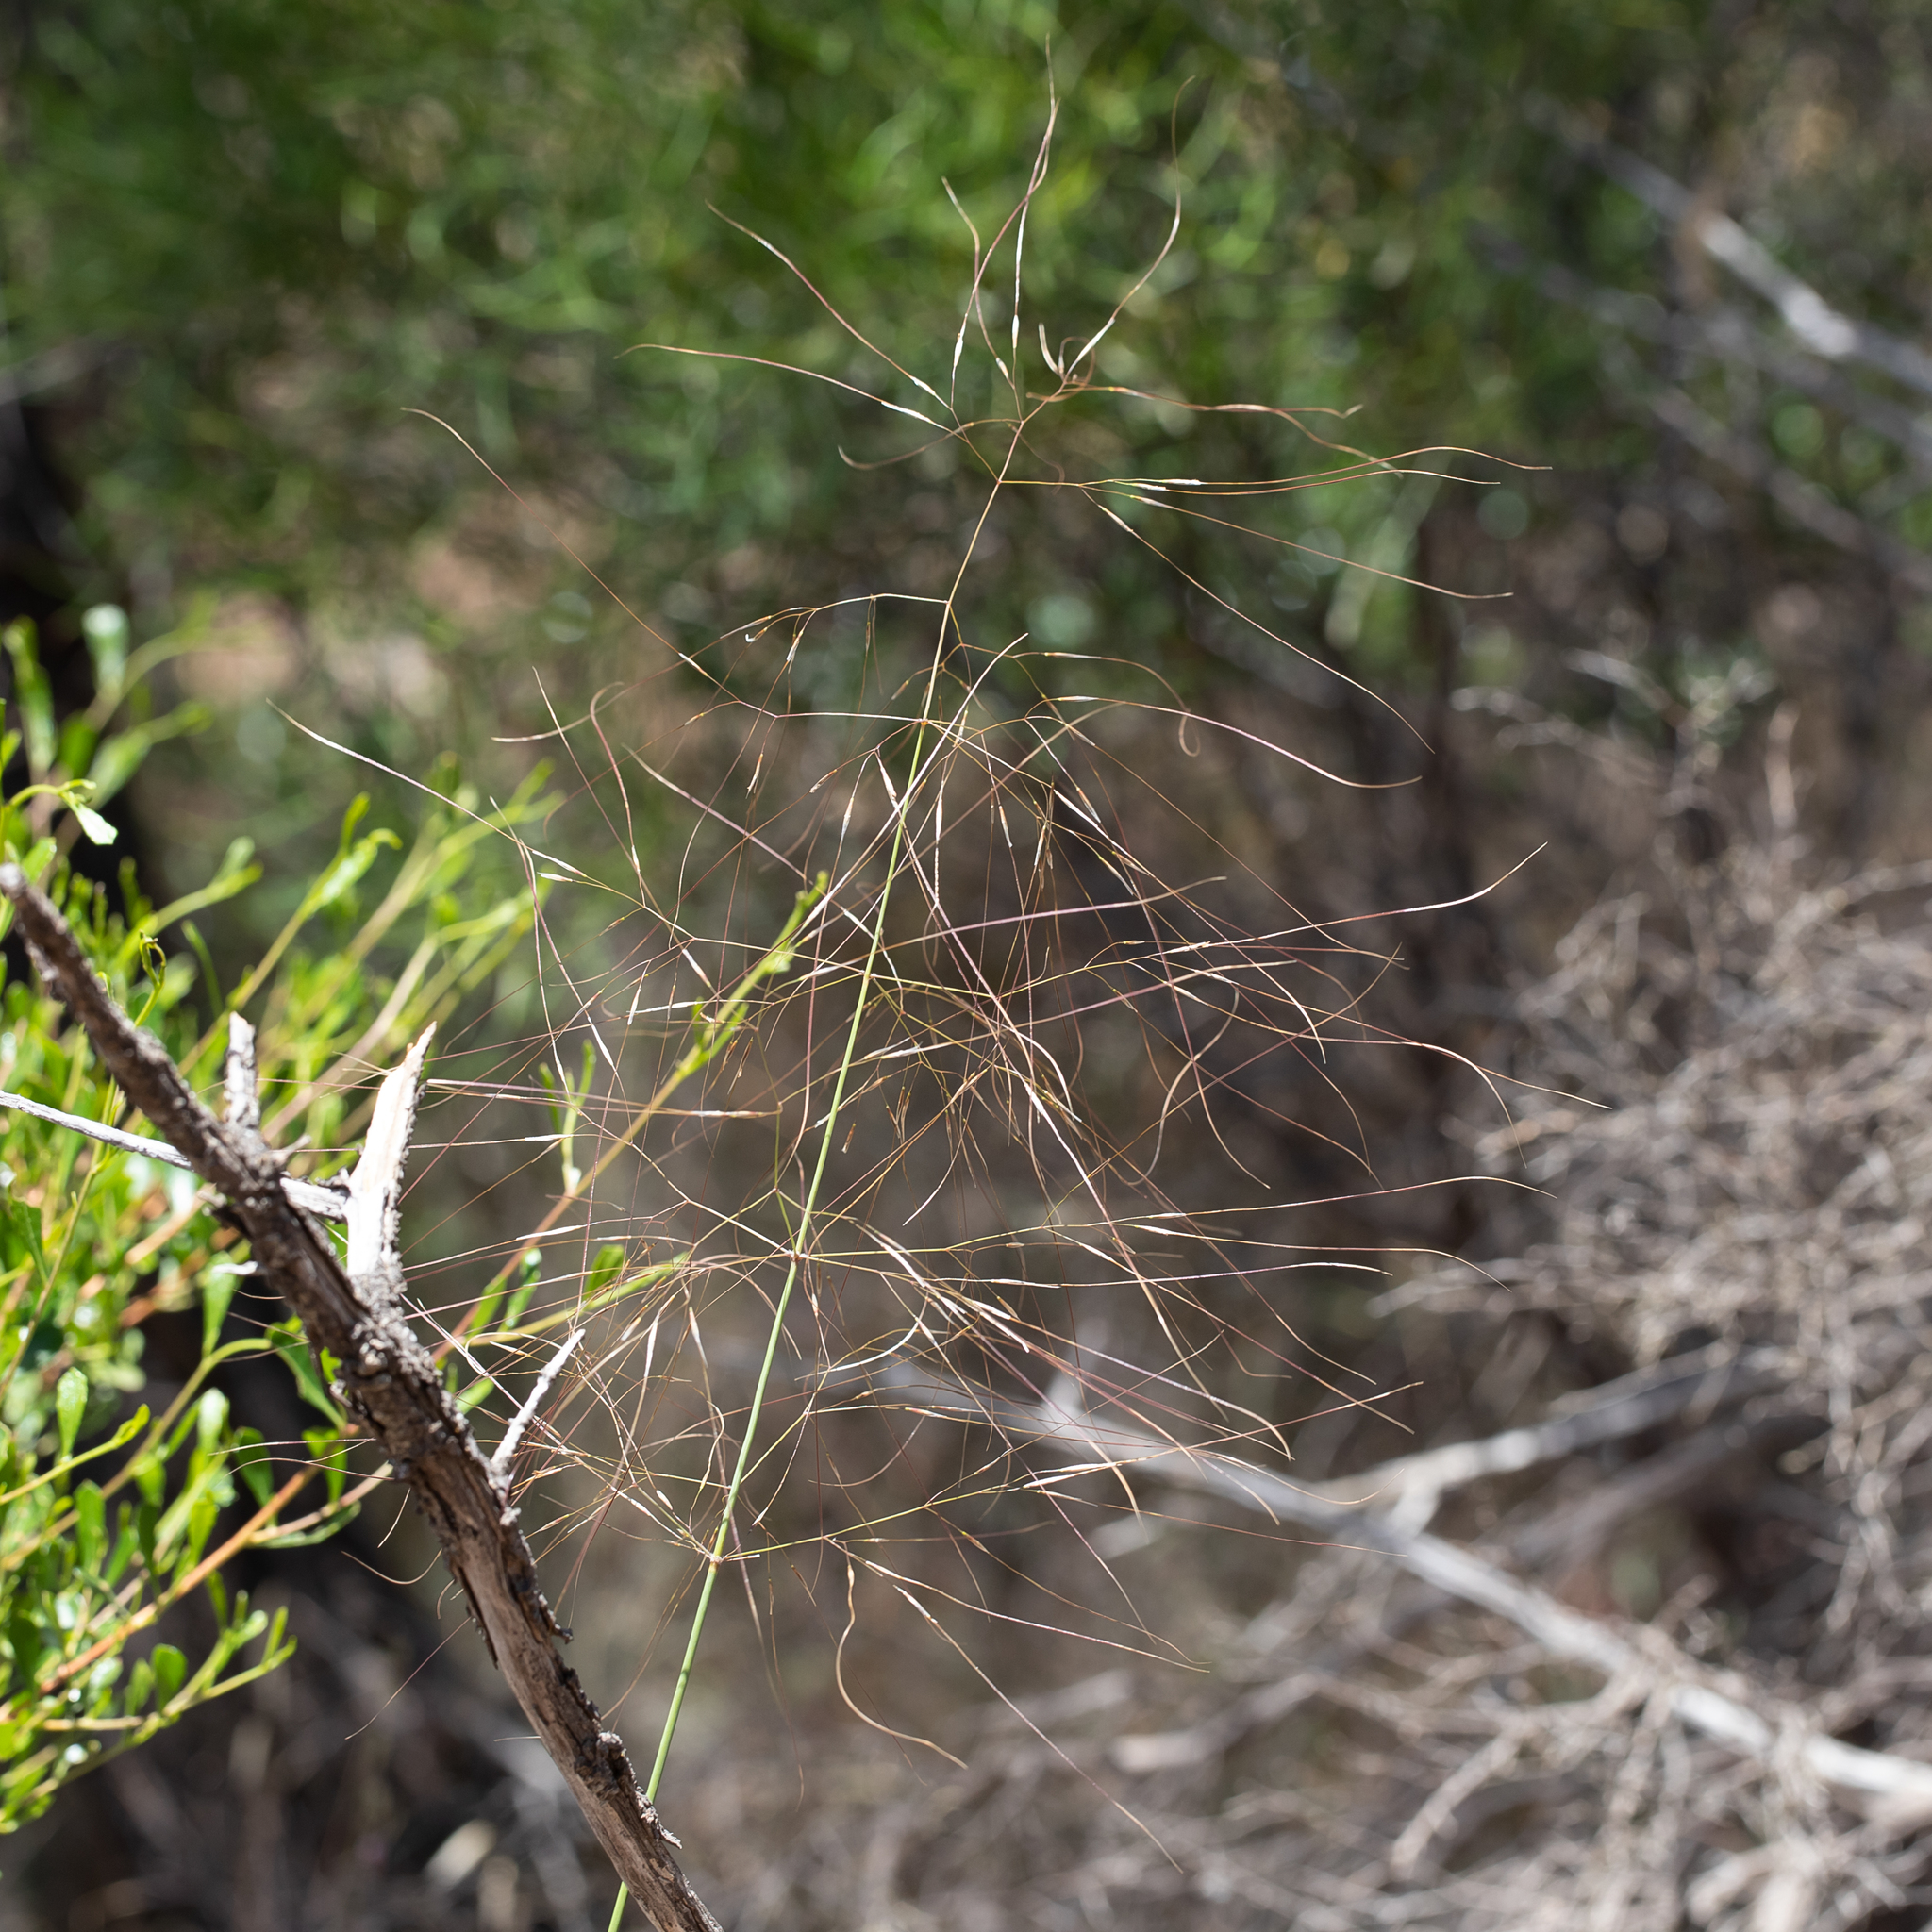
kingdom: Plantae
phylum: Tracheophyta
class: Liliopsida
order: Poales
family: Poaceae
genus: Austrostipa
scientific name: Austrostipa platychaeta
